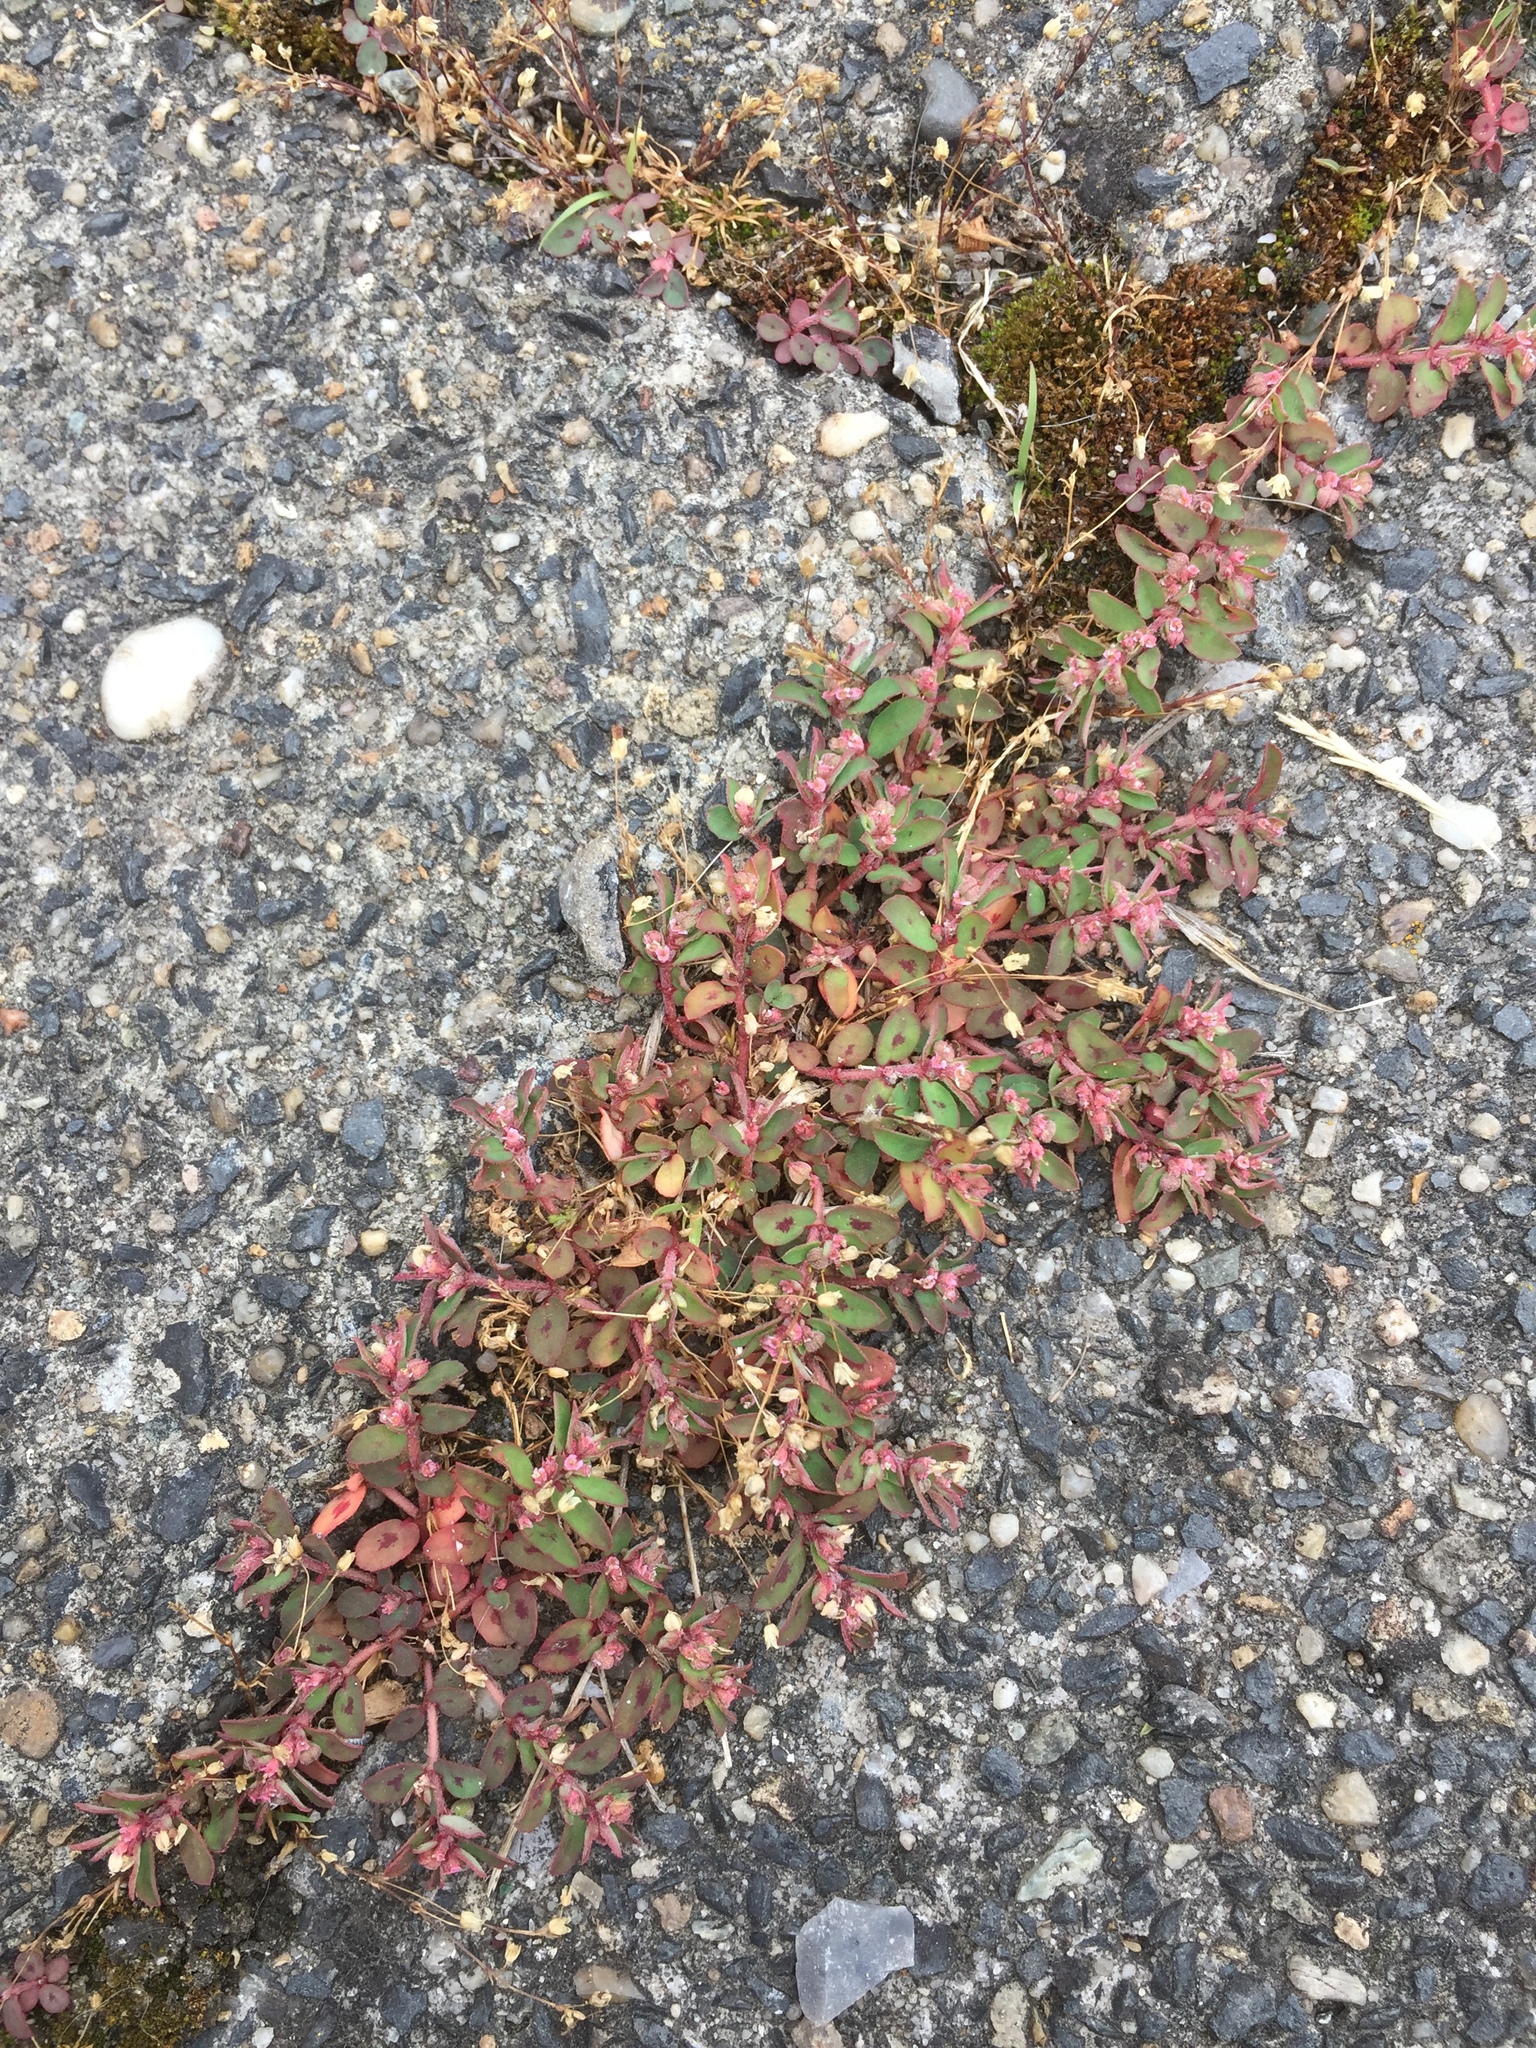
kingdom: Plantae
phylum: Tracheophyta
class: Magnoliopsida
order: Malpighiales
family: Euphorbiaceae
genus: Euphorbia
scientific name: Euphorbia maculata
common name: Spotted spurge
